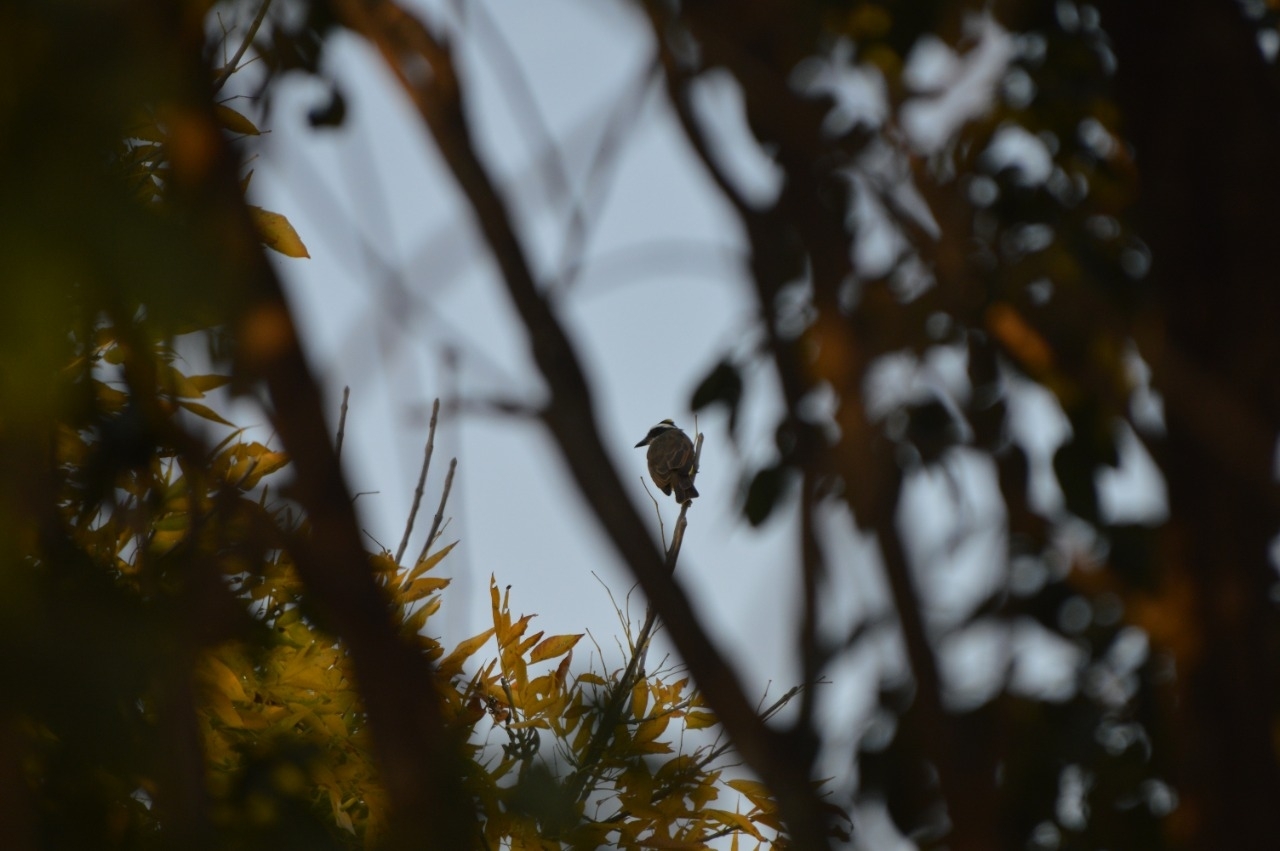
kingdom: Animalia
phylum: Chordata
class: Aves
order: Passeriformes
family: Tyrannidae
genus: Pitangus
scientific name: Pitangus sulphuratus
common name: Great kiskadee
